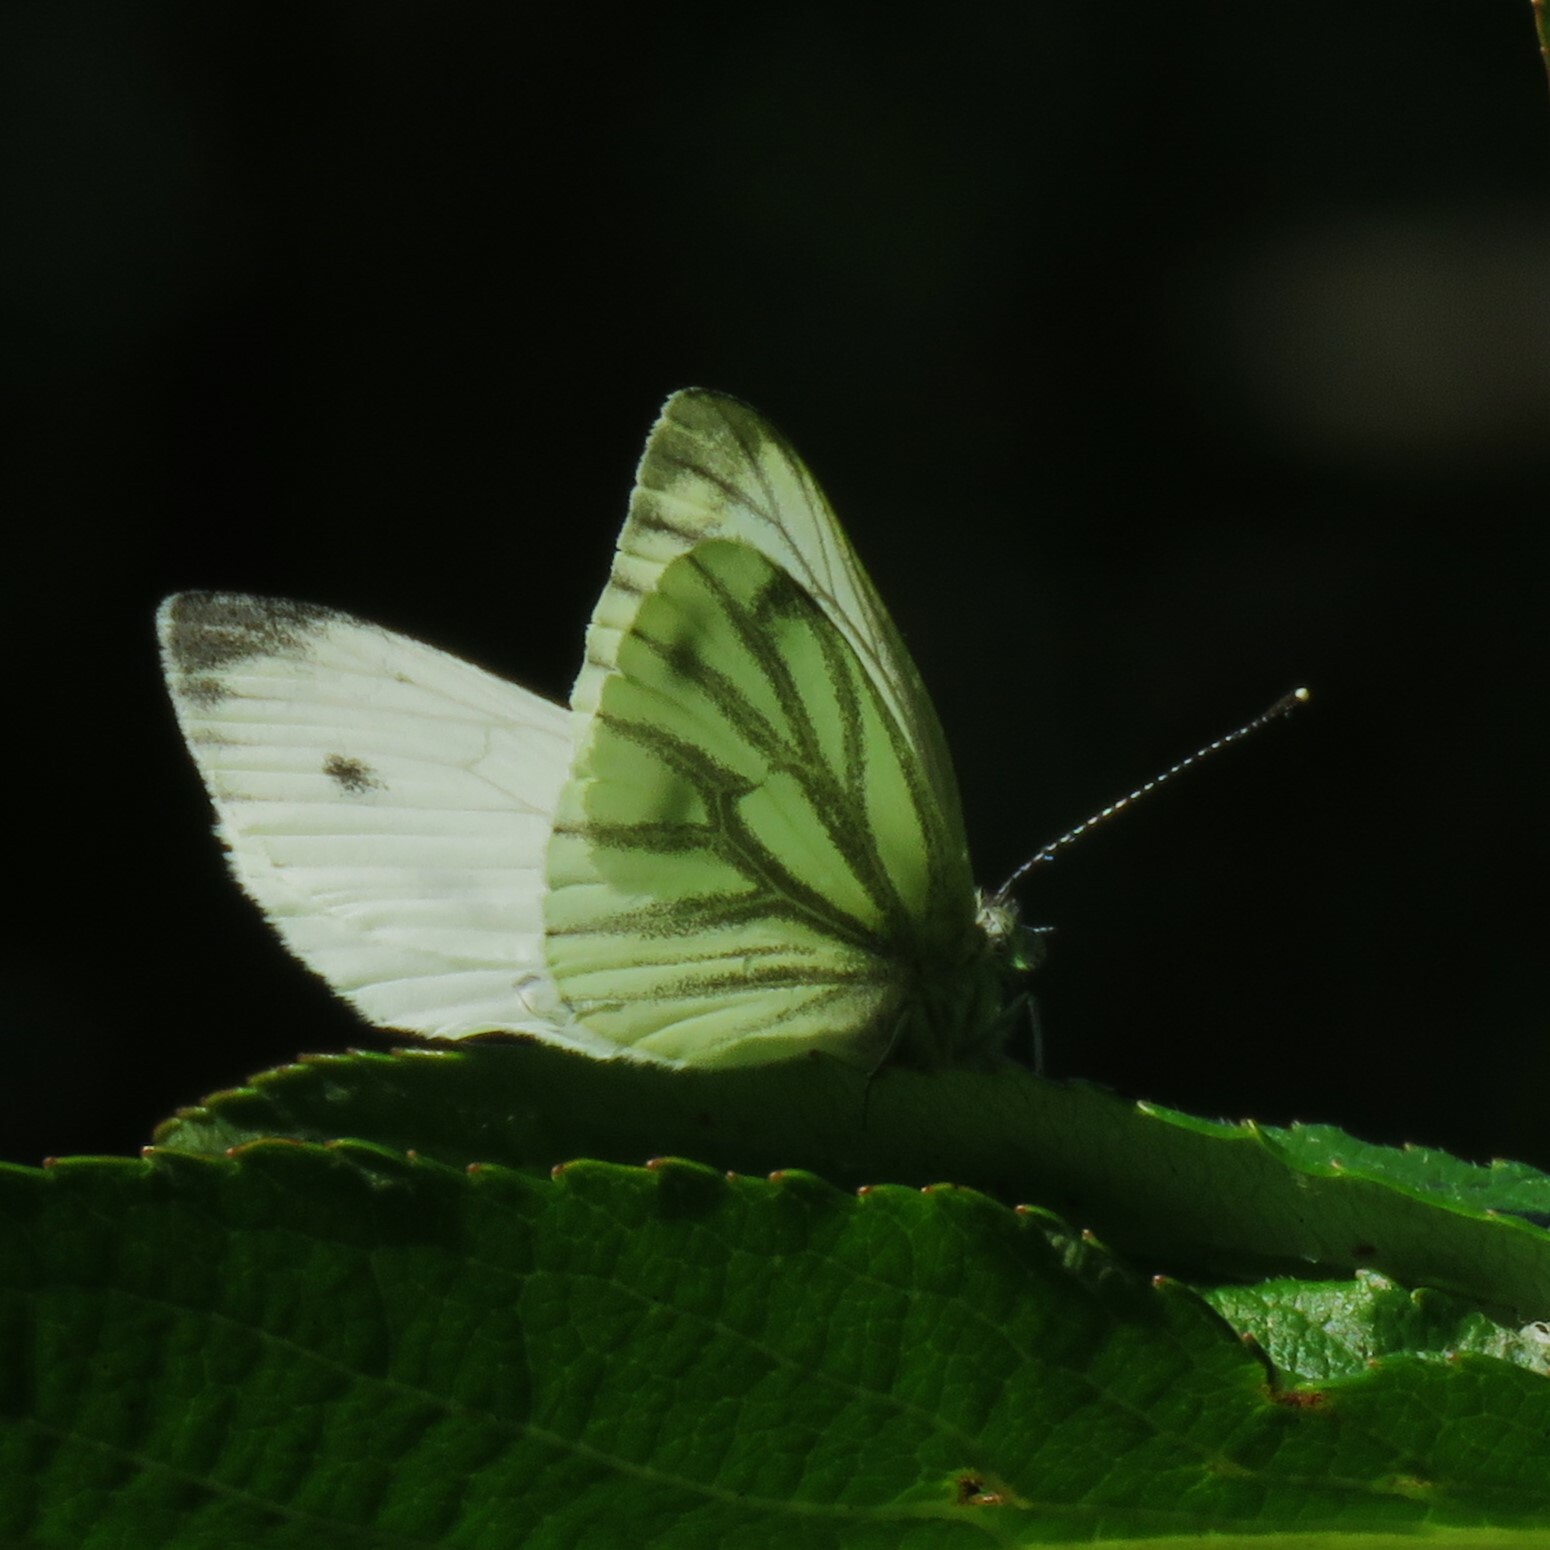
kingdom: Animalia
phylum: Arthropoda
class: Insecta
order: Lepidoptera
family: Pieridae
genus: Pieris
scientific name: Pieris napi
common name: Green-veined white
